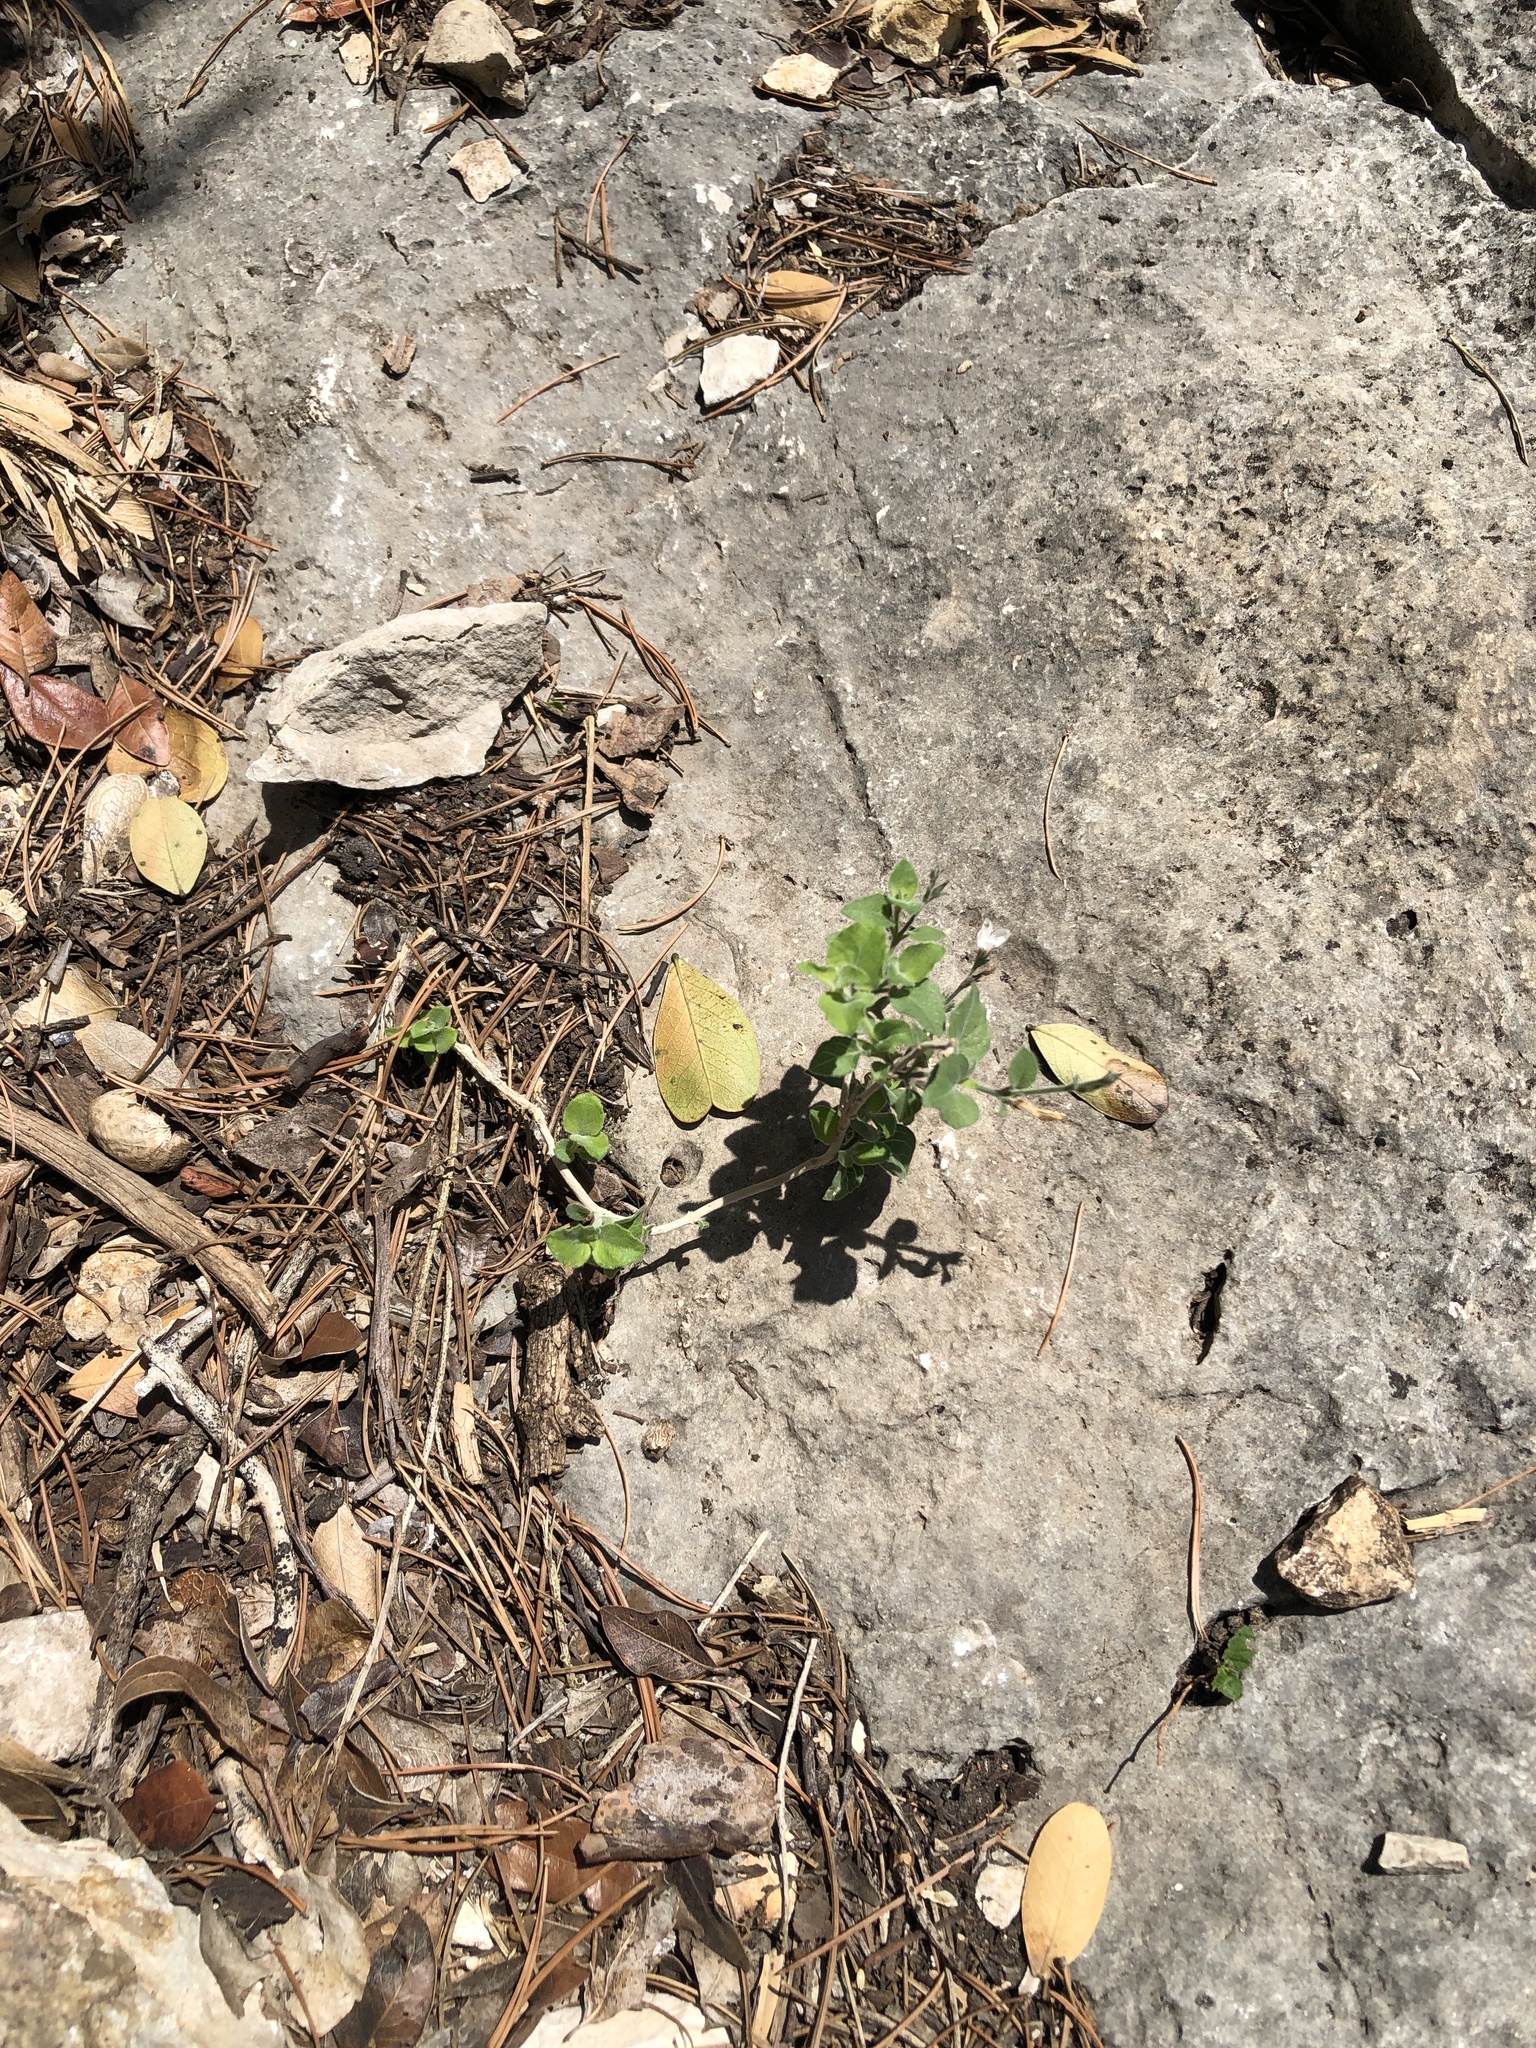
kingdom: Plantae
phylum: Tracheophyta
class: Magnoliopsida
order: Lamiales
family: Acanthaceae
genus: Carlowrightia
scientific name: Carlowrightia torreyana
